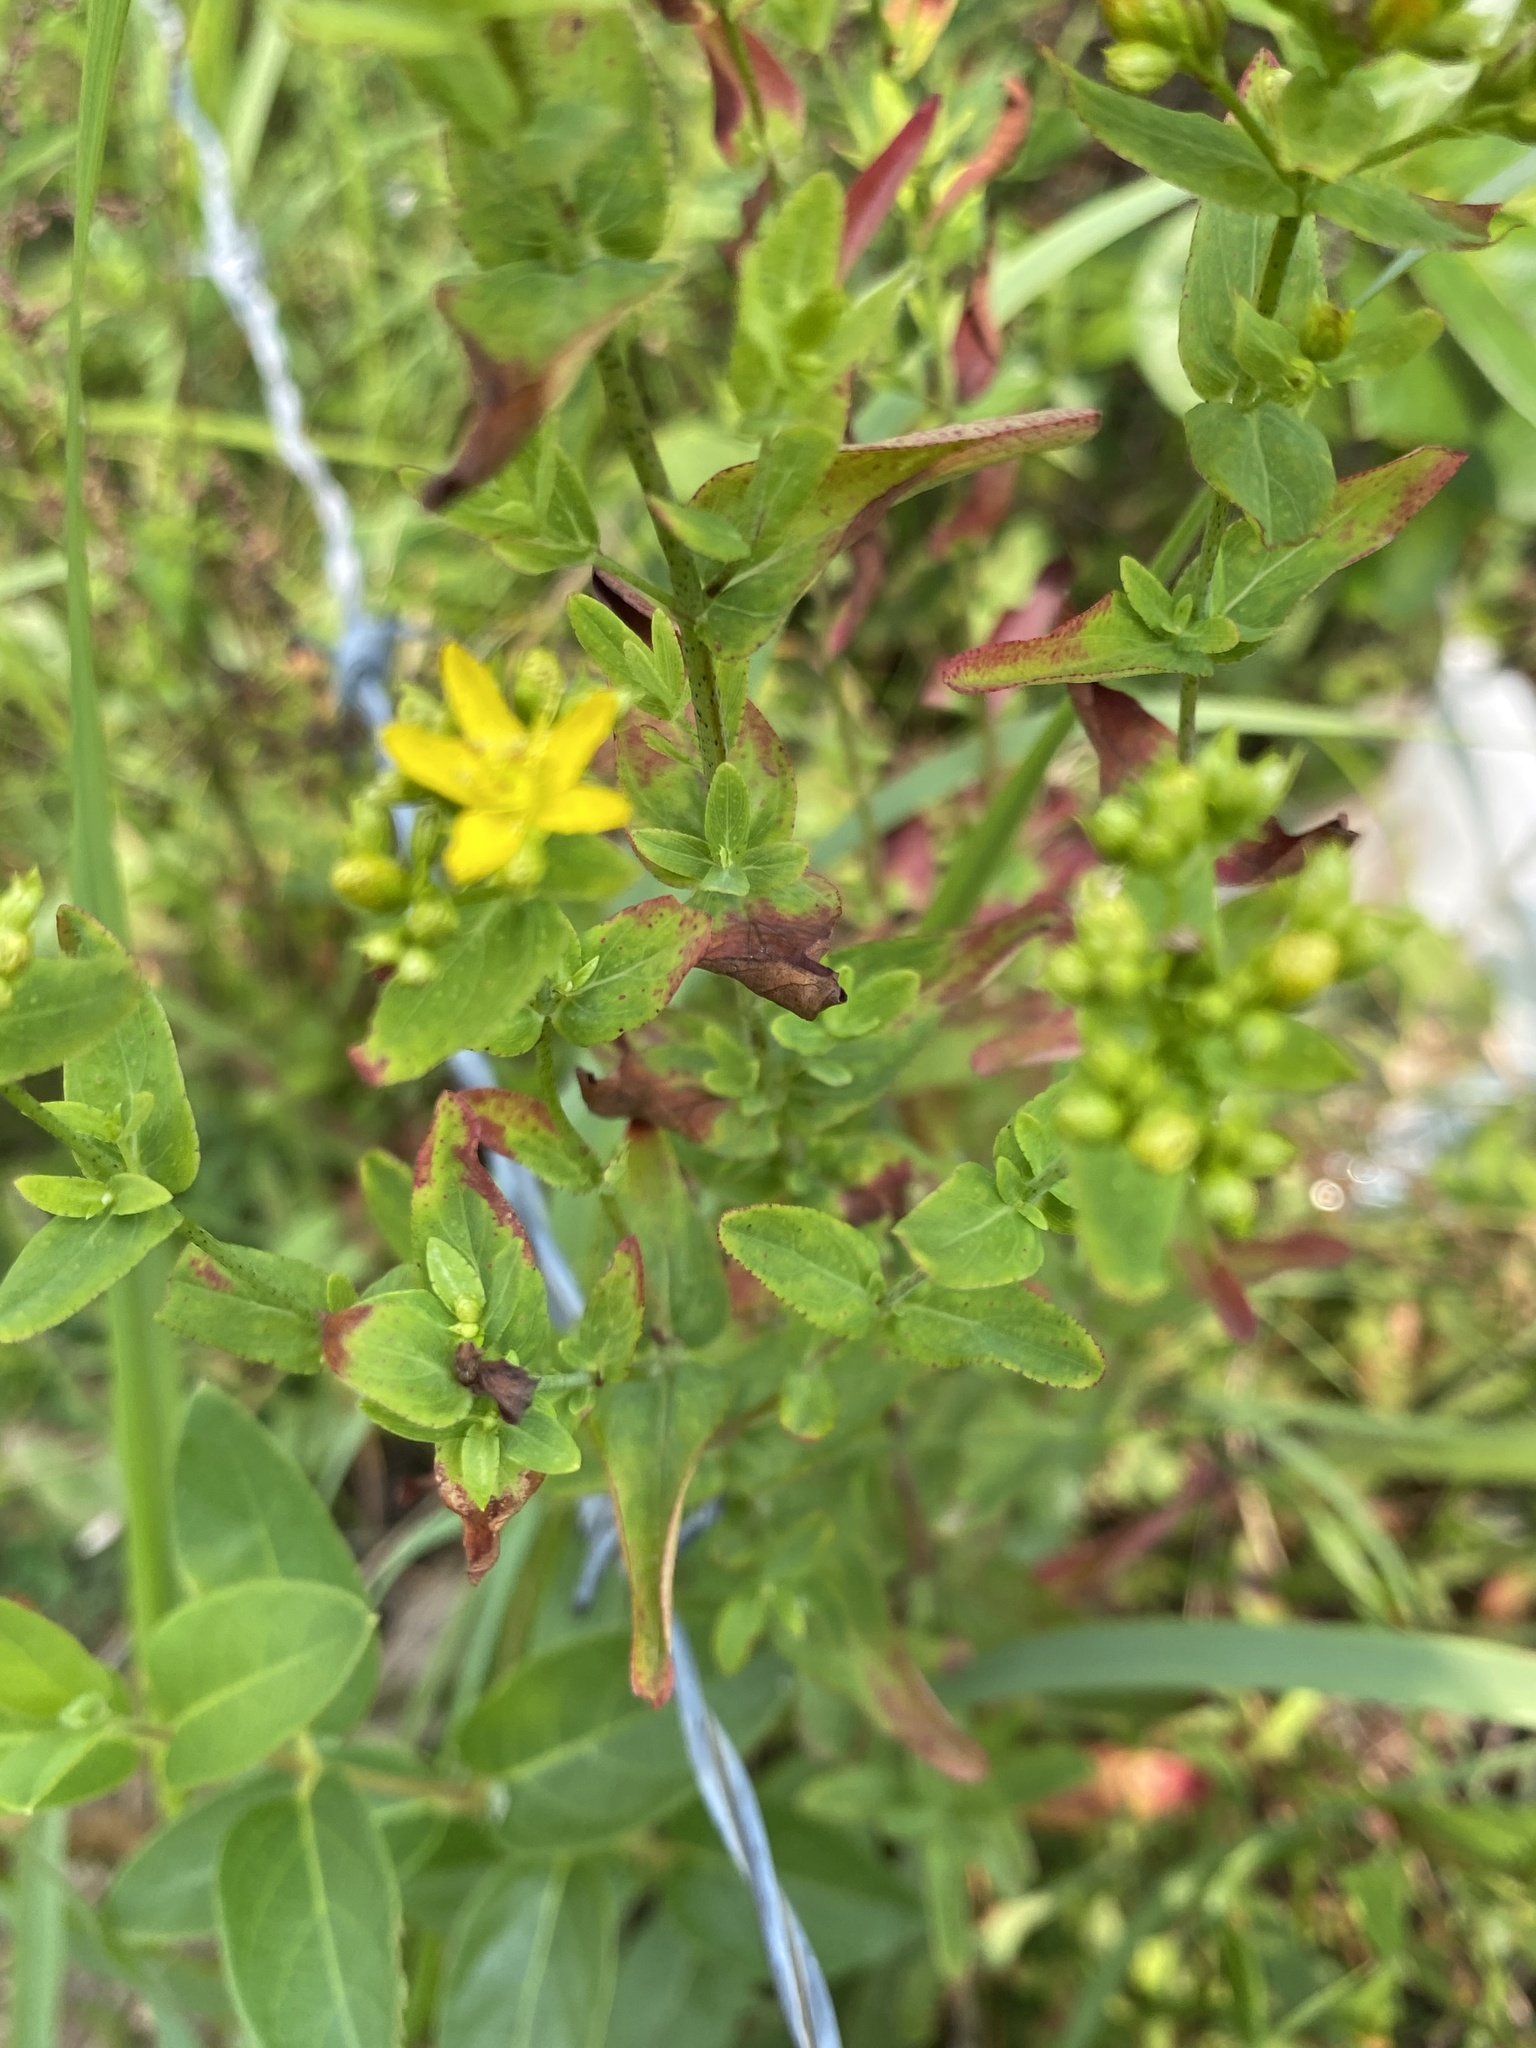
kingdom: Plantae
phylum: Tracheophyta
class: Magnoliopsida
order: Malpighiales
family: Hypericaceae
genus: Hypericum
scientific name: Hypericum punctatum
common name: Spotted st. john's-wort
